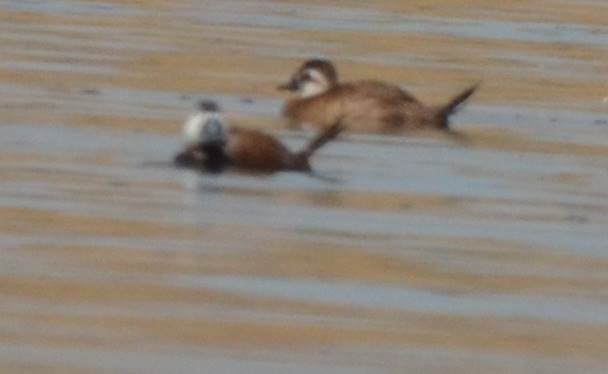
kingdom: Animalia
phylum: Chordata
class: Aves
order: Anseriformes
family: Anatidae
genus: Oxyura
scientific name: Oxyura leucocephala
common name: White-headed duck
